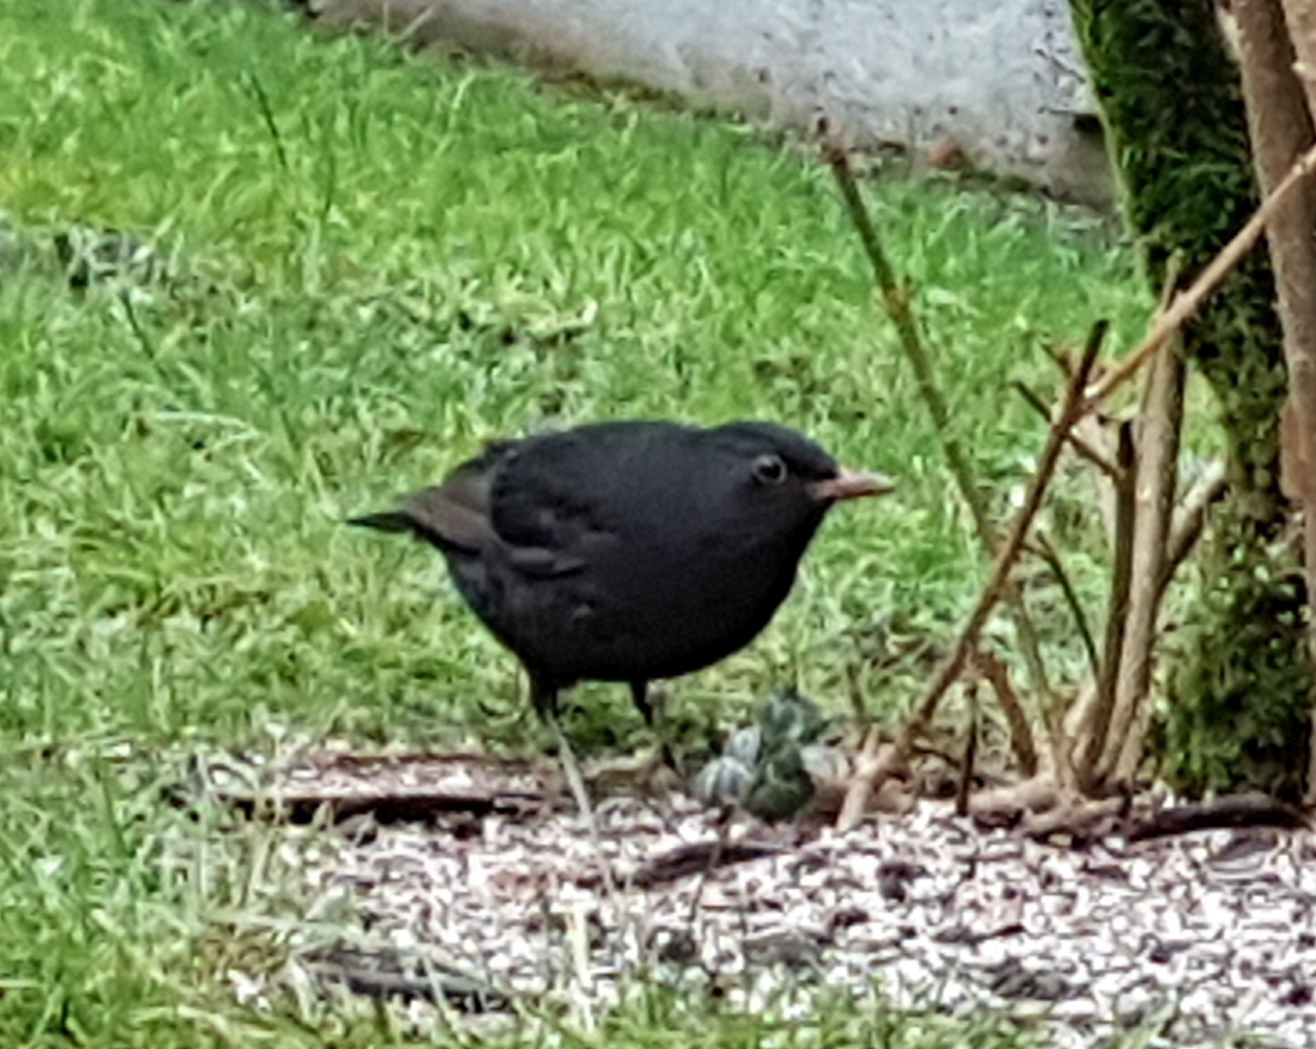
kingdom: Animalia
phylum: Chordata
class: Aves
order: Passeriformes
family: Turdidae
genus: Turdus
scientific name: Turdus merula
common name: Common blackbird
